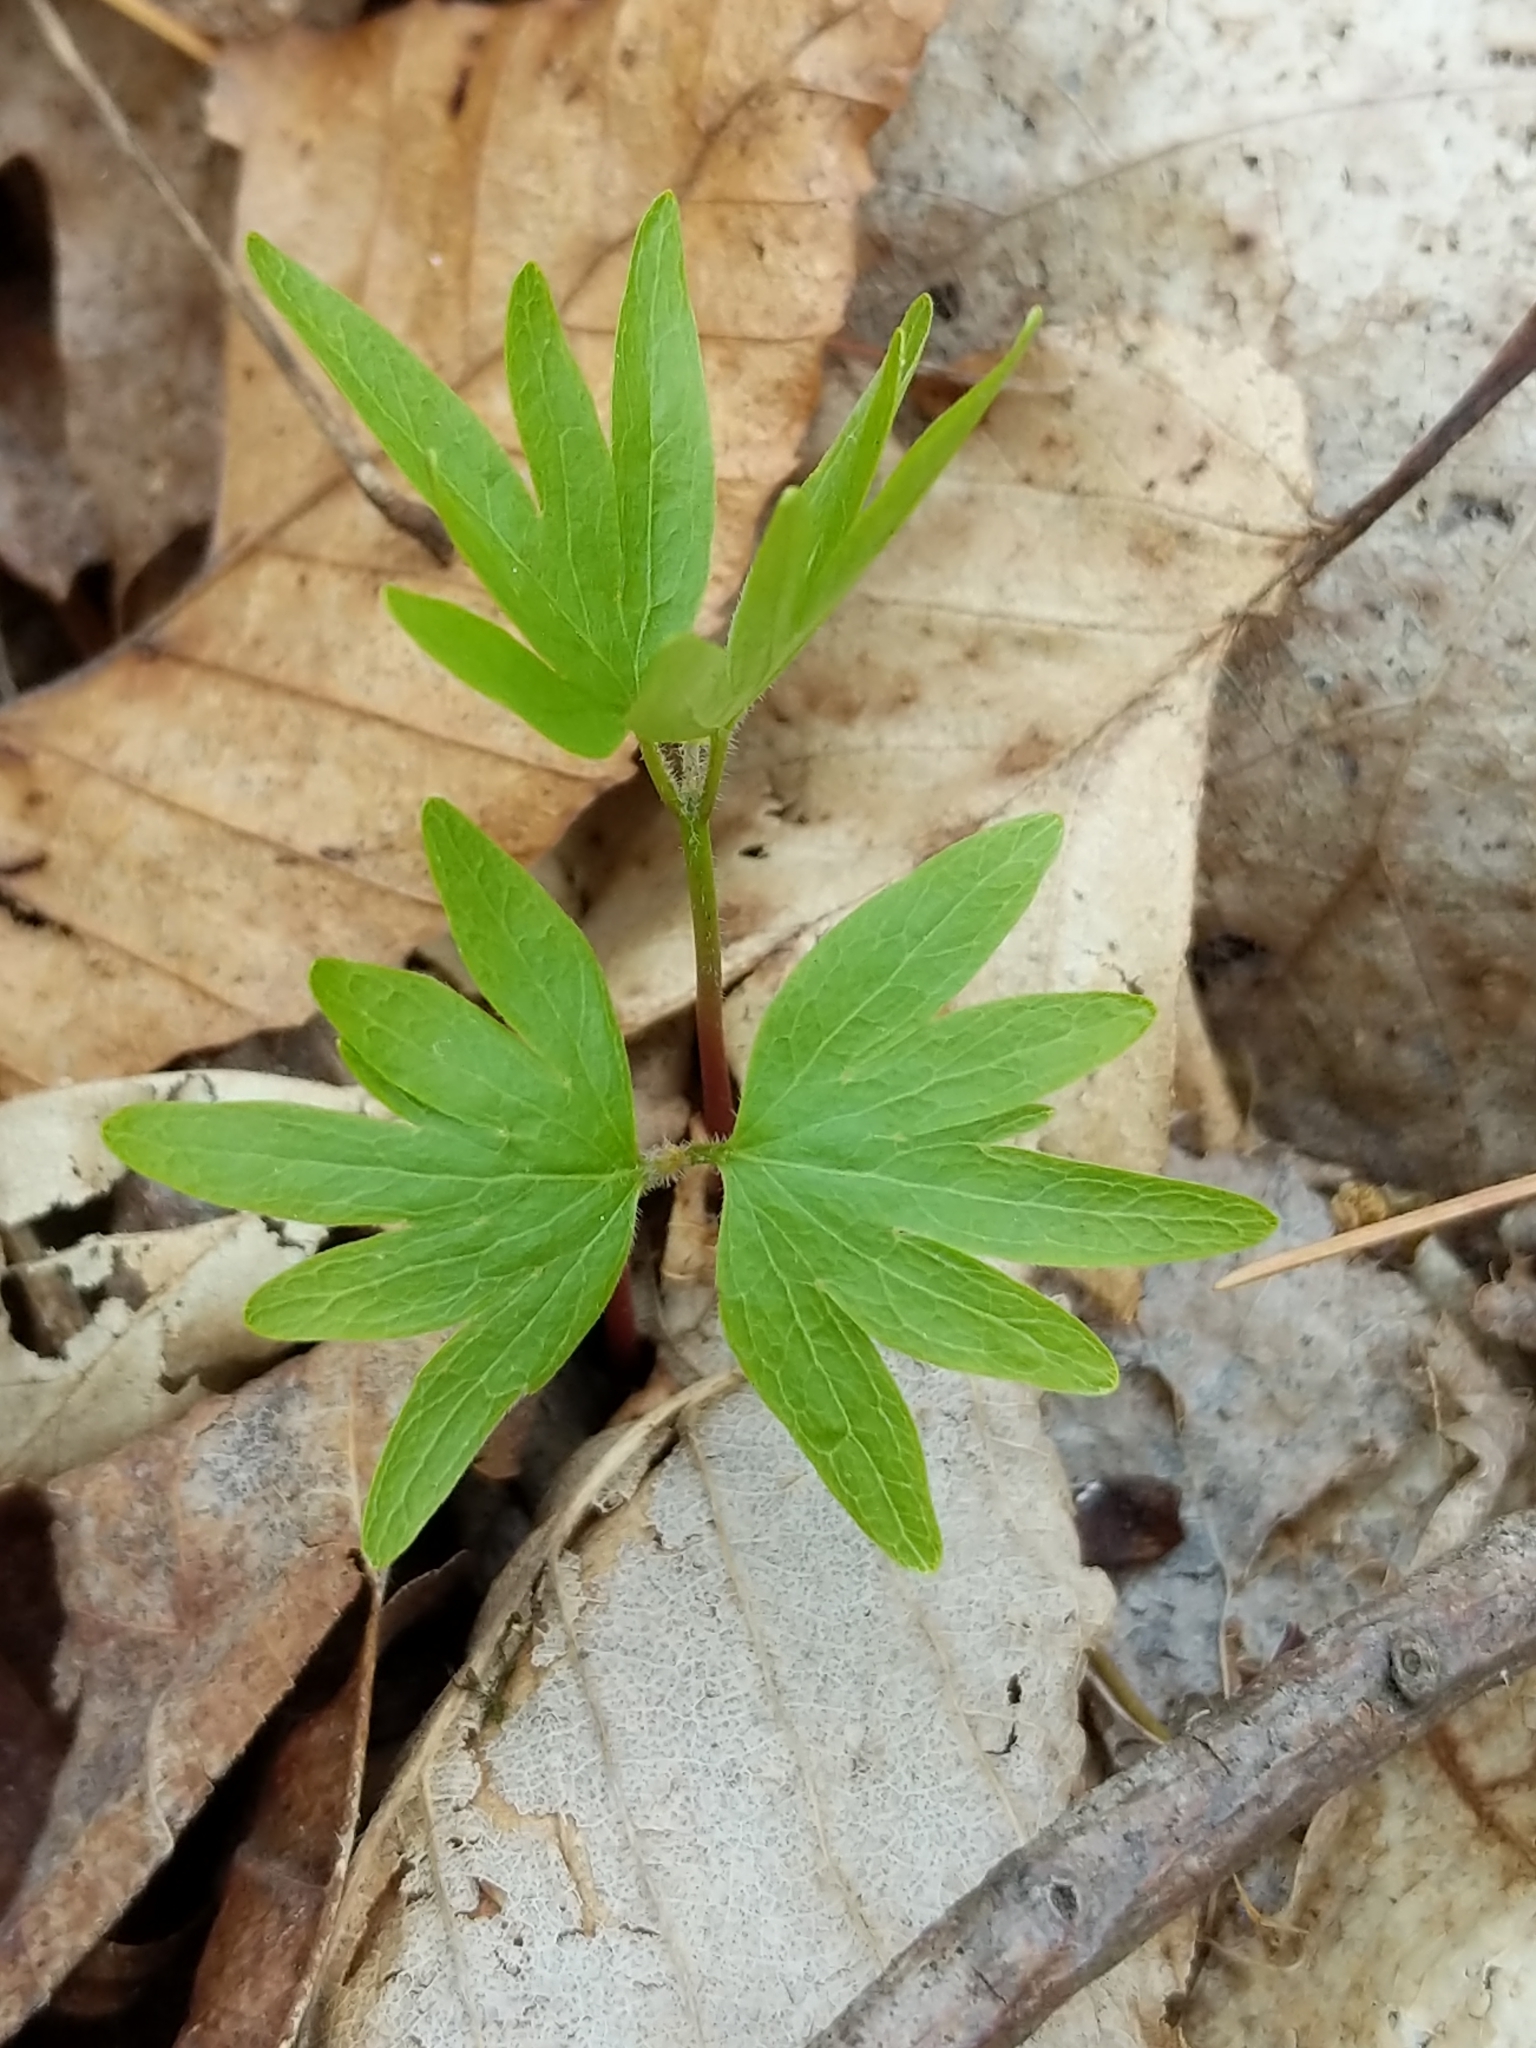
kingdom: Plantae
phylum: Tracheophyta
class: Magnoliopsida
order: Malvales
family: Malvaceae
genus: Tilia
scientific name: Tilia americana
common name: Basswood
